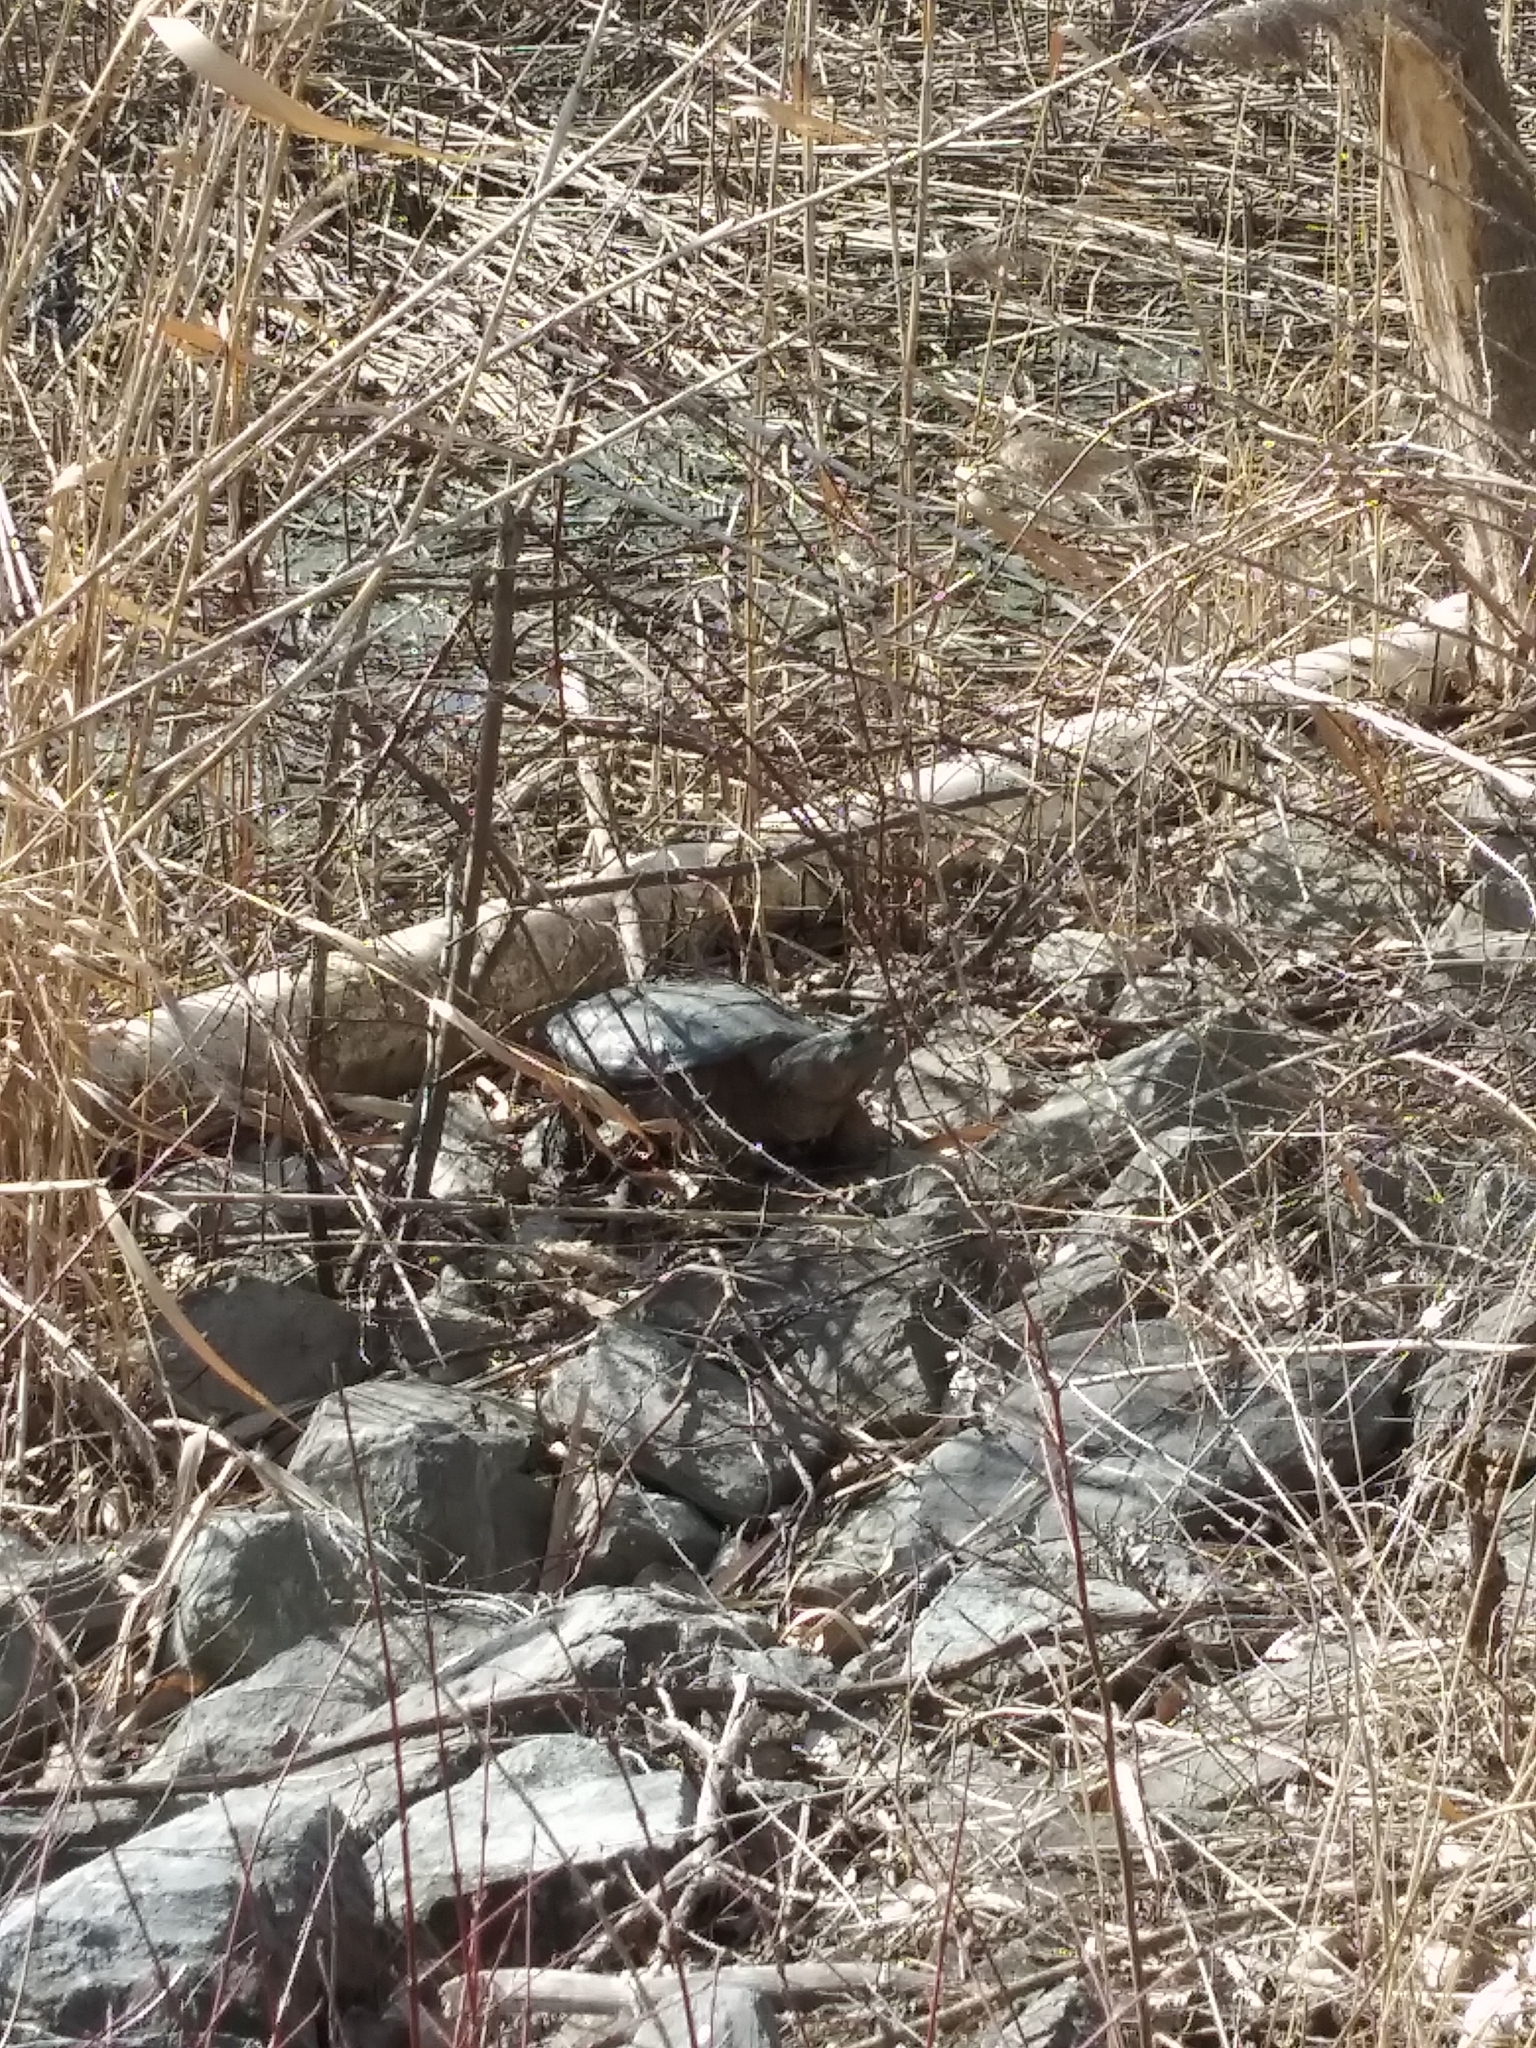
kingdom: Animalia
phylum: Chordata
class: Testudines
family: Chelydridae
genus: Chelydra
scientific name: Chelydra serpentina
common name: Common snapping turtle
